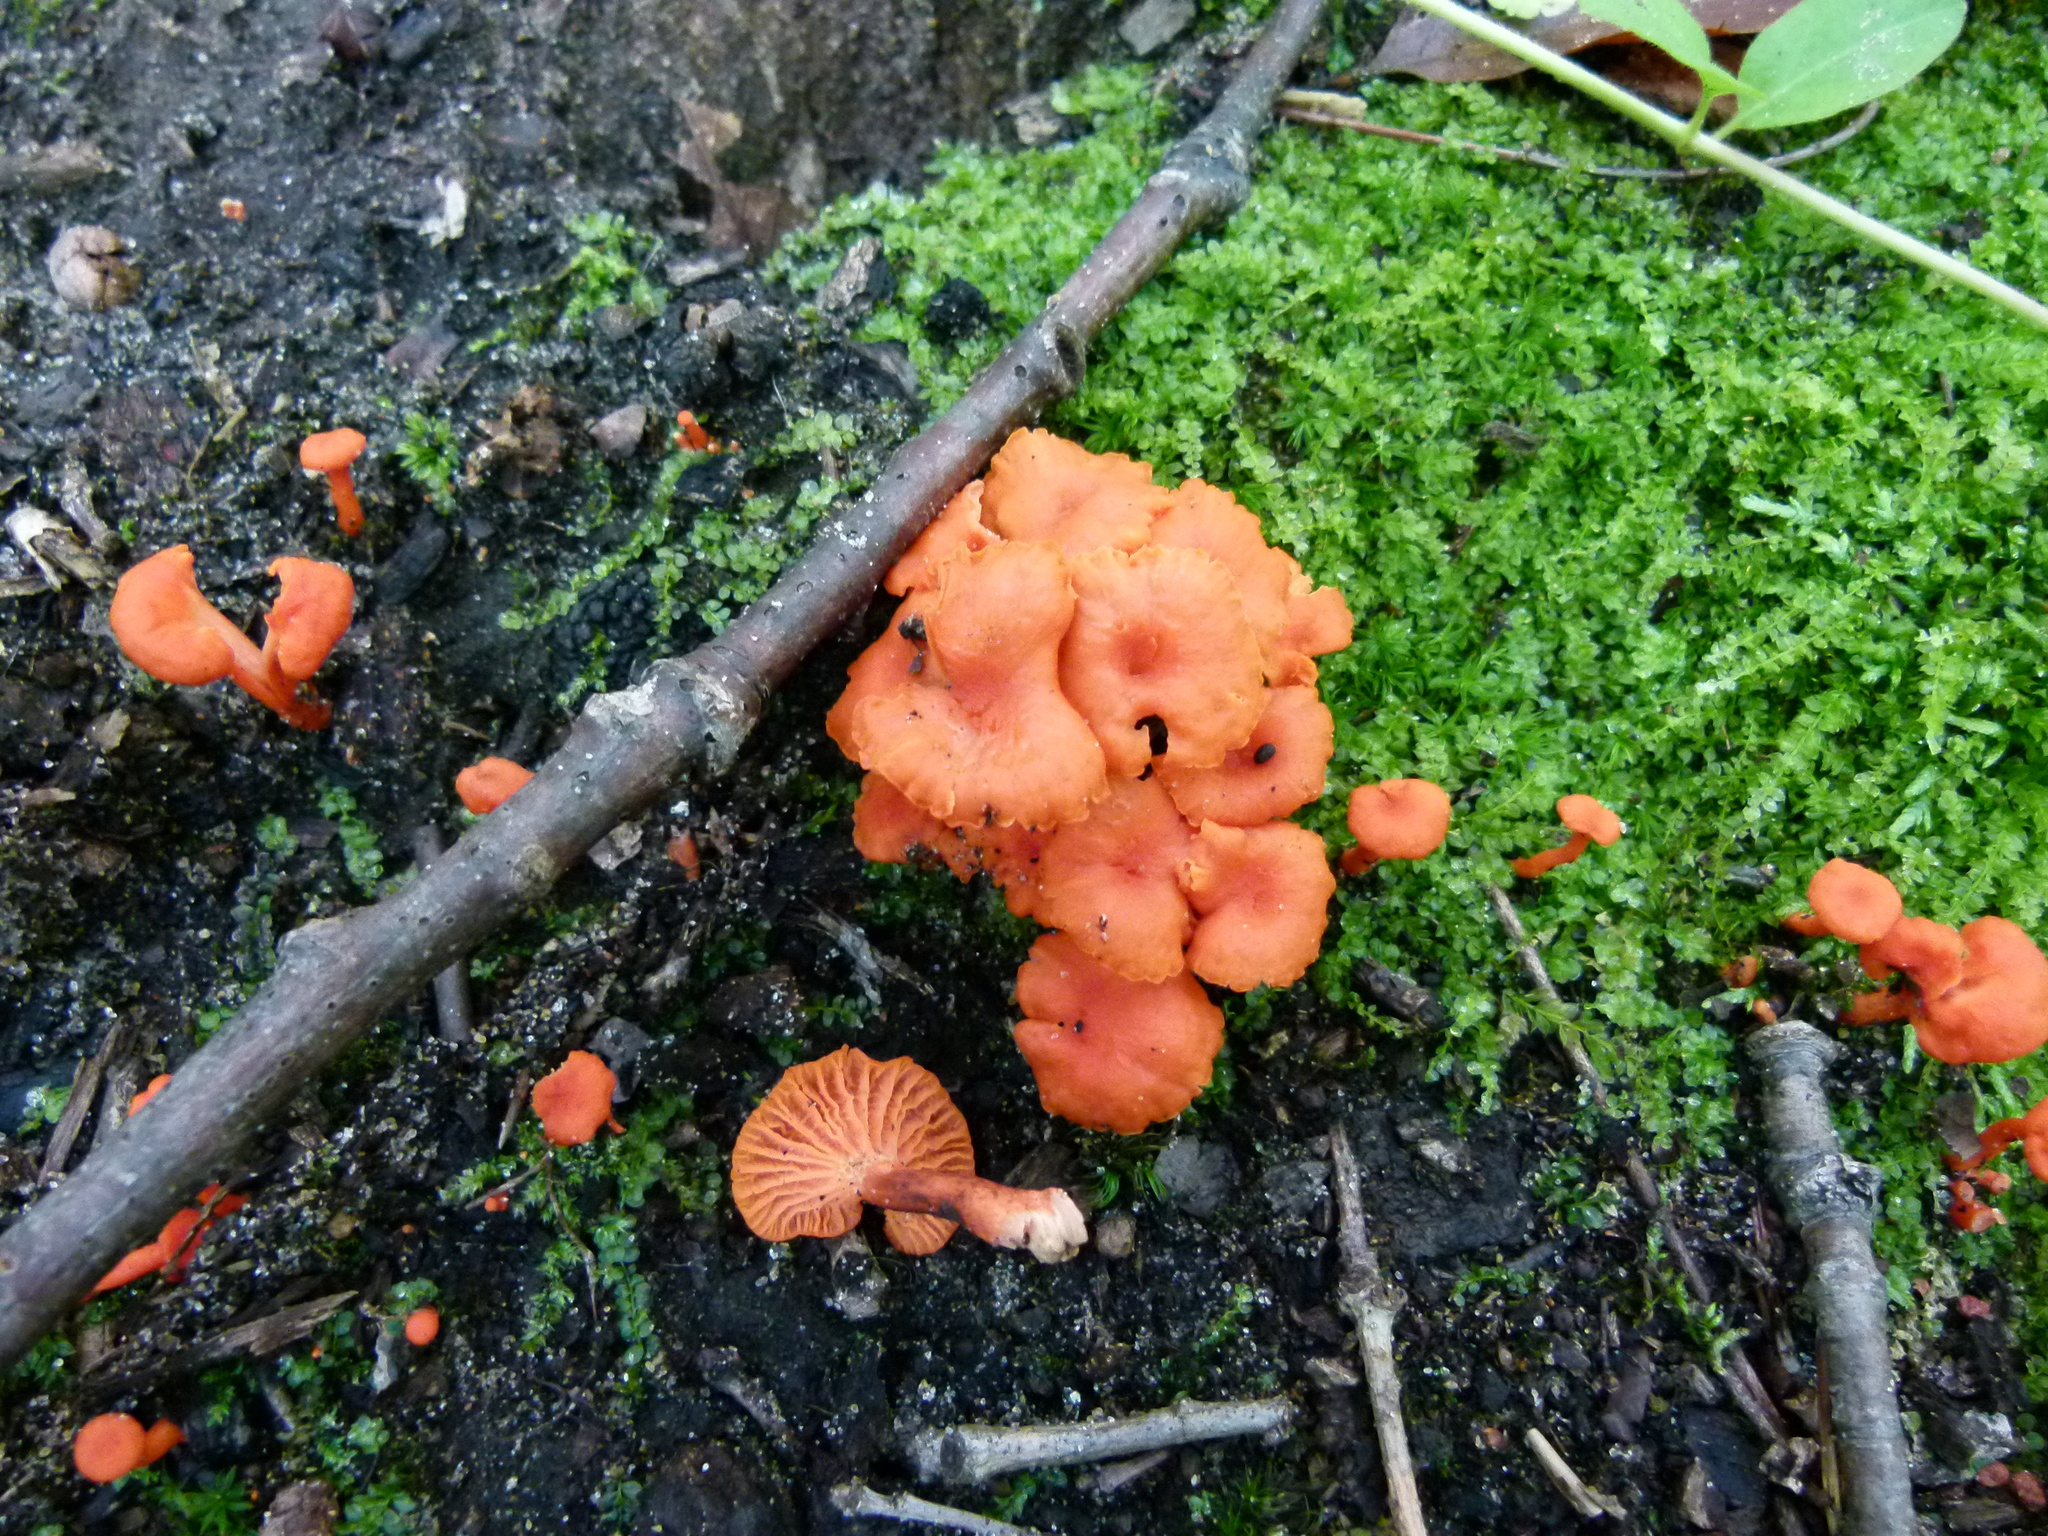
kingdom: Fungi
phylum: Basidiomycota
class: Agaricomycetes
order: Cantharellales
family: Hydnaceae
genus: Cantharellus
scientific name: Cantharellus cinnabarinus
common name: Cinnabar chanterelle
